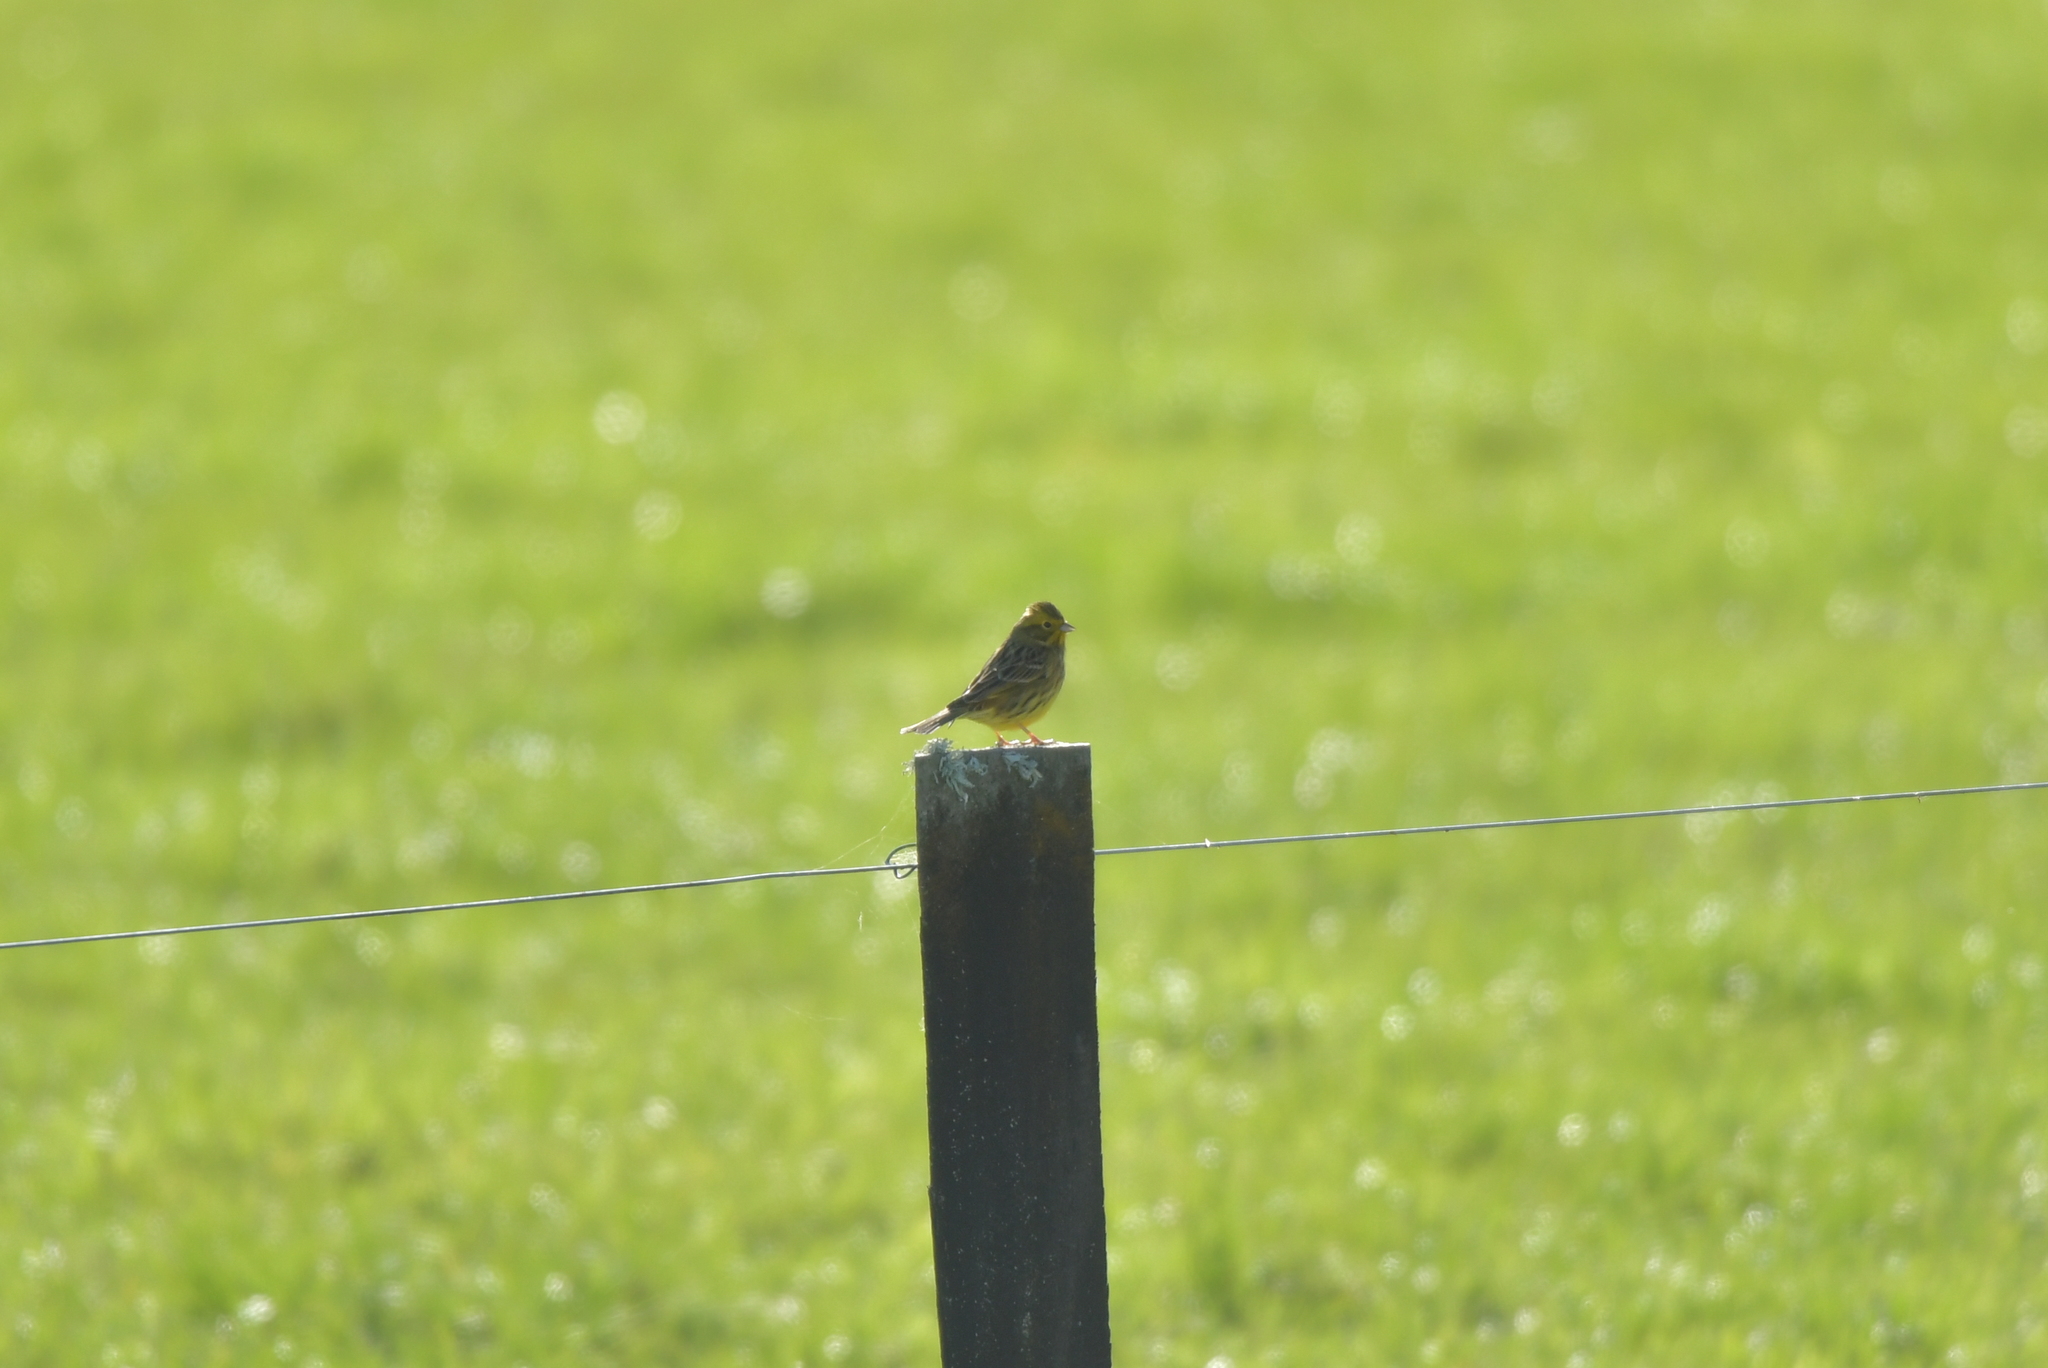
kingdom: Animalia
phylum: Chordata
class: Aves
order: Passeriformes
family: Emberizidae
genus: Emberiza
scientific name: Emberiza citrinella
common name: Yellowhammer
